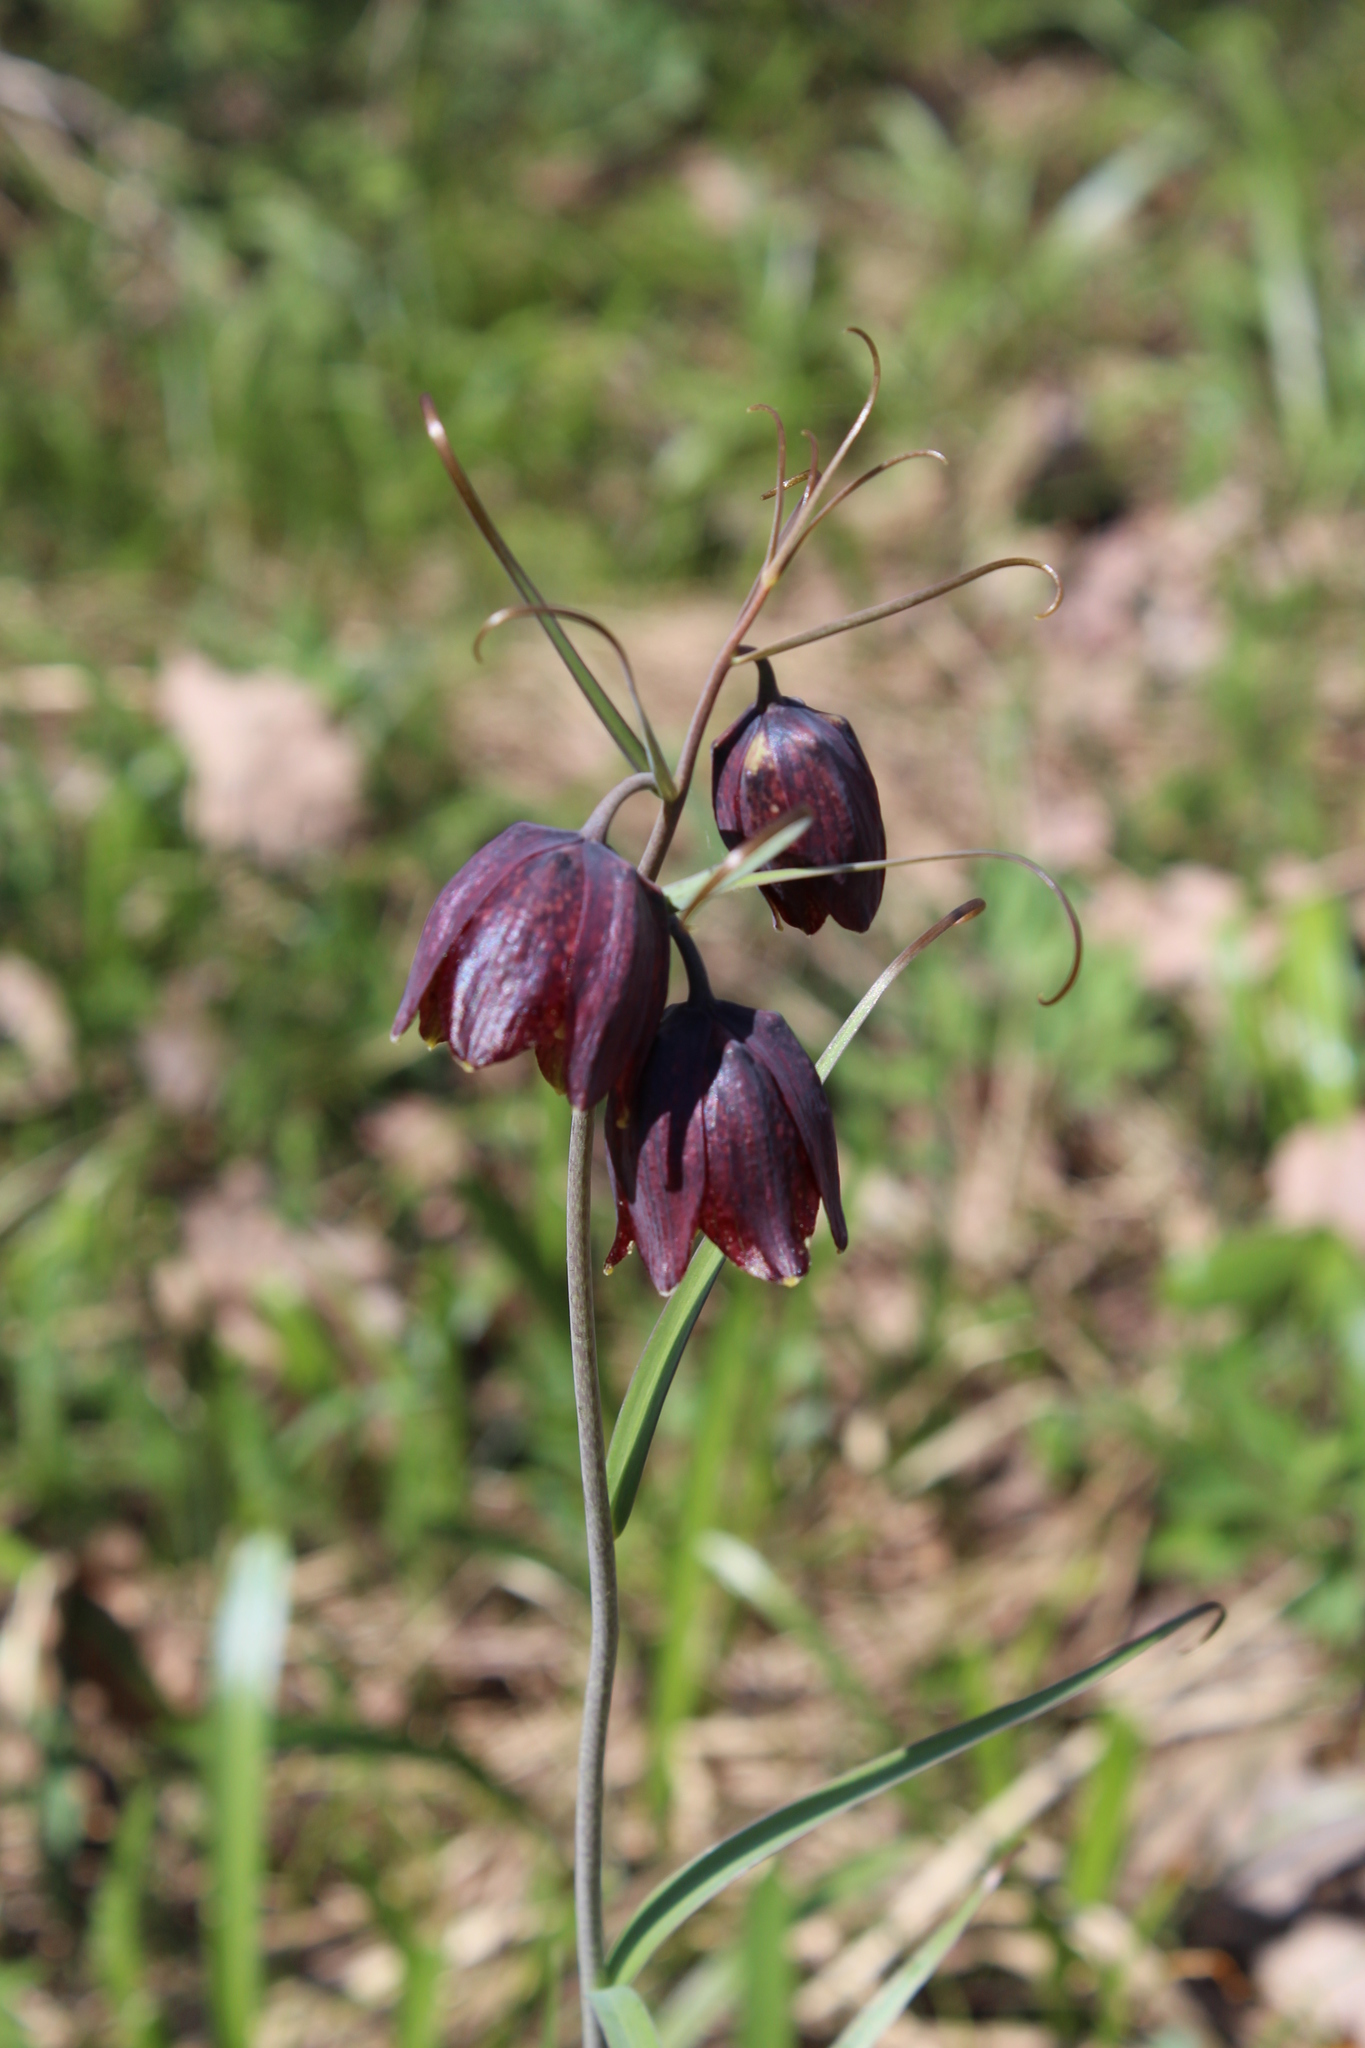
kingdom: Plantae
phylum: Tracheophyta
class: Liliopsida
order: Liliales
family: Liliaceae
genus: Fritillaria
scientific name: Fritillaria ruthenica
